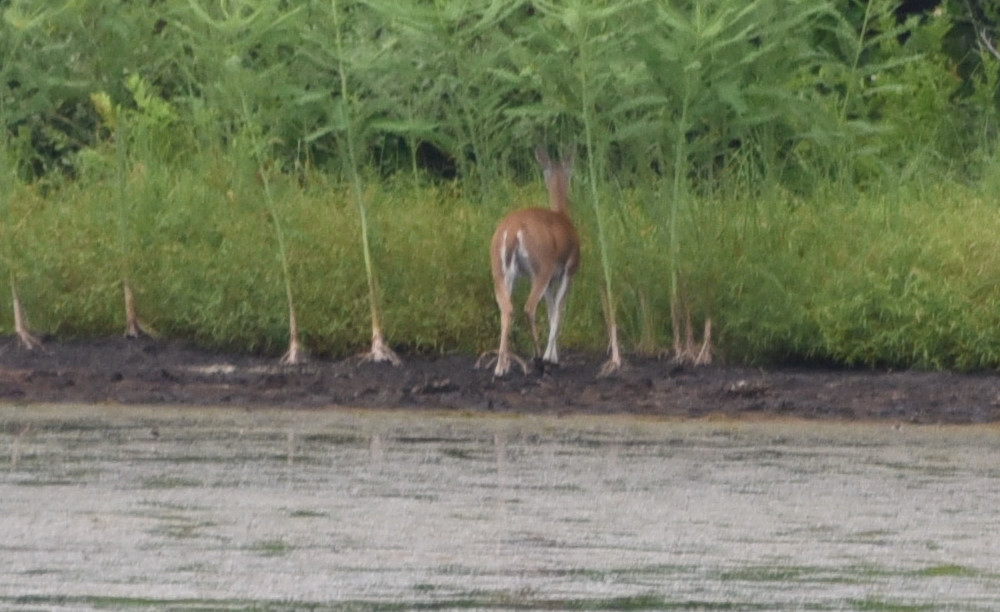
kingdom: Animalia
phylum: Chordata
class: Mammalia
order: Artiodactyla
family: Cervidae
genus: Odocoileus
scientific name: Odocoileus virginianus
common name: White-tailed deer
